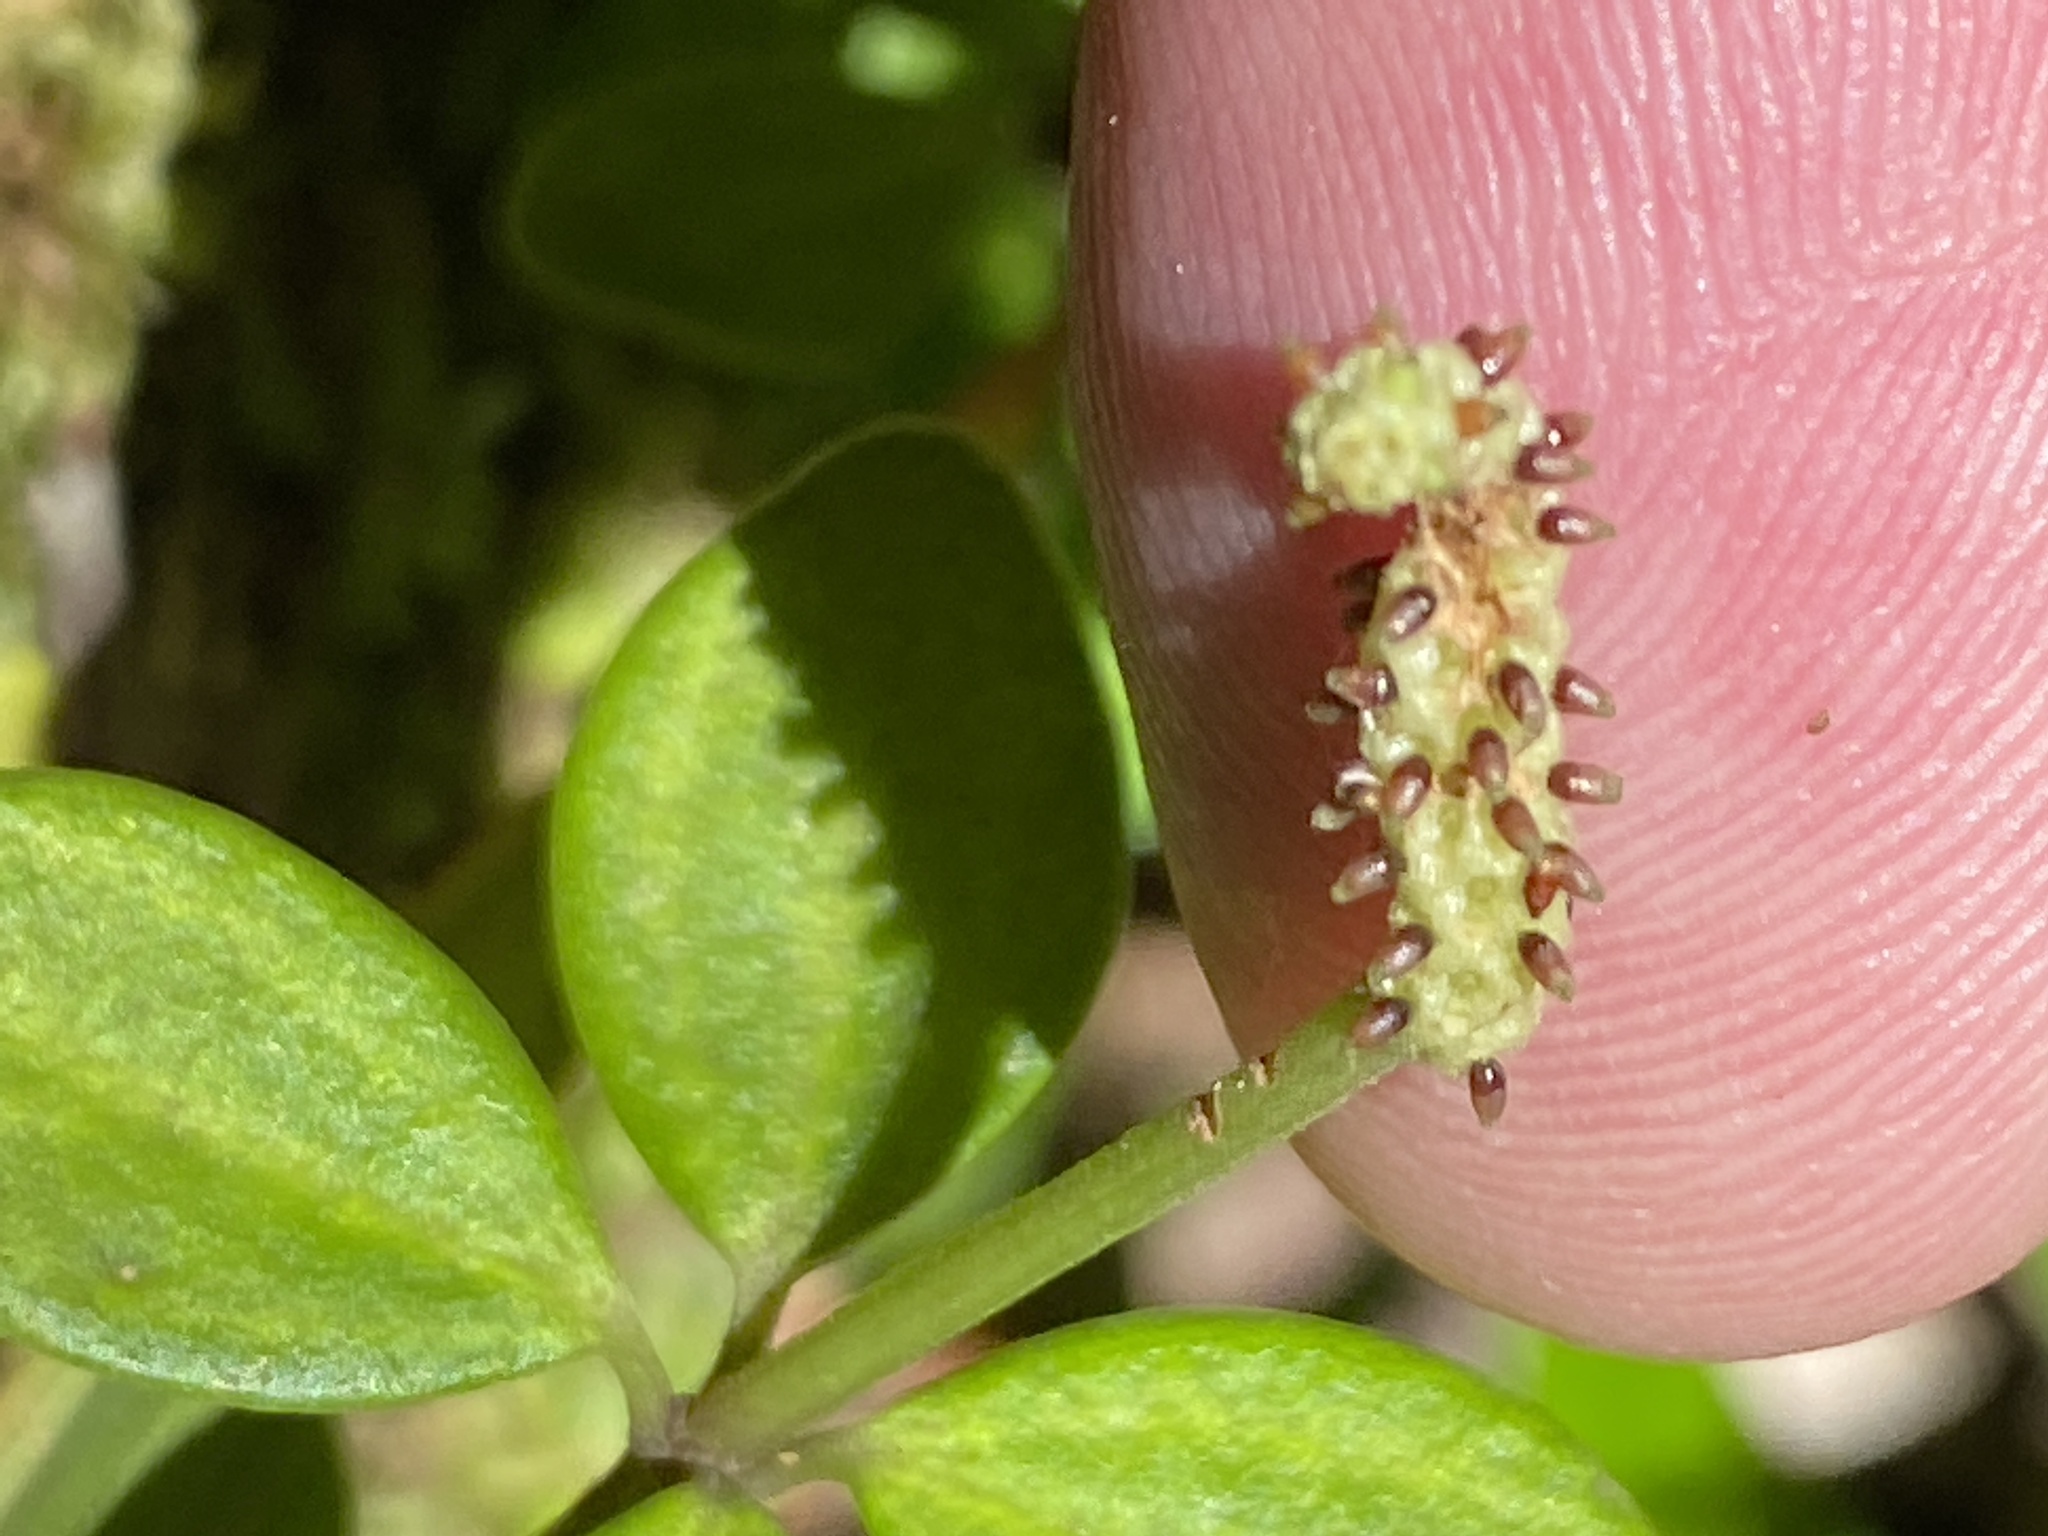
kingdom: Plantae
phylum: Tracheophyta
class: Magnoliopsida
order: Piperales
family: Piperaceae
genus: Peperomia
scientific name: Peperomia tetraphylla
